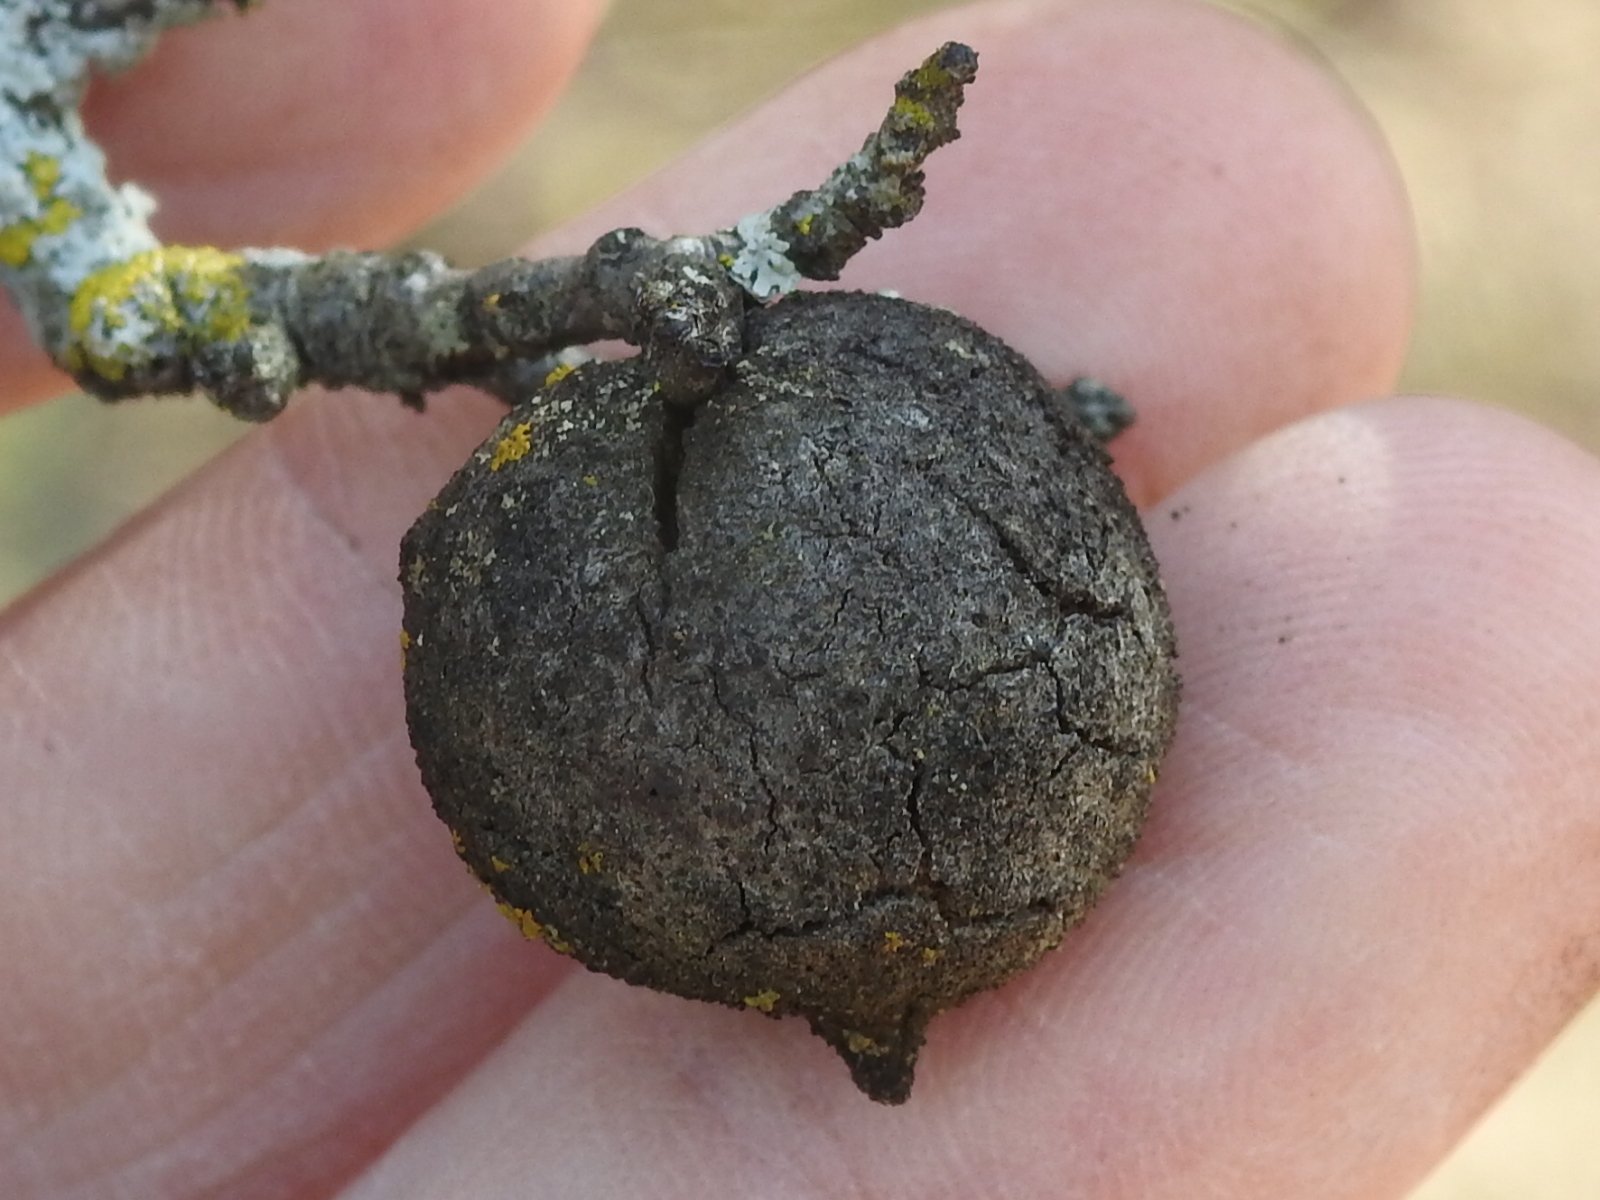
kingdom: Animalia
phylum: Arthropoda
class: Insecta
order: Hymenoptera
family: Cynipidae
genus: Disholcaspis
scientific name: Disholcaspis
